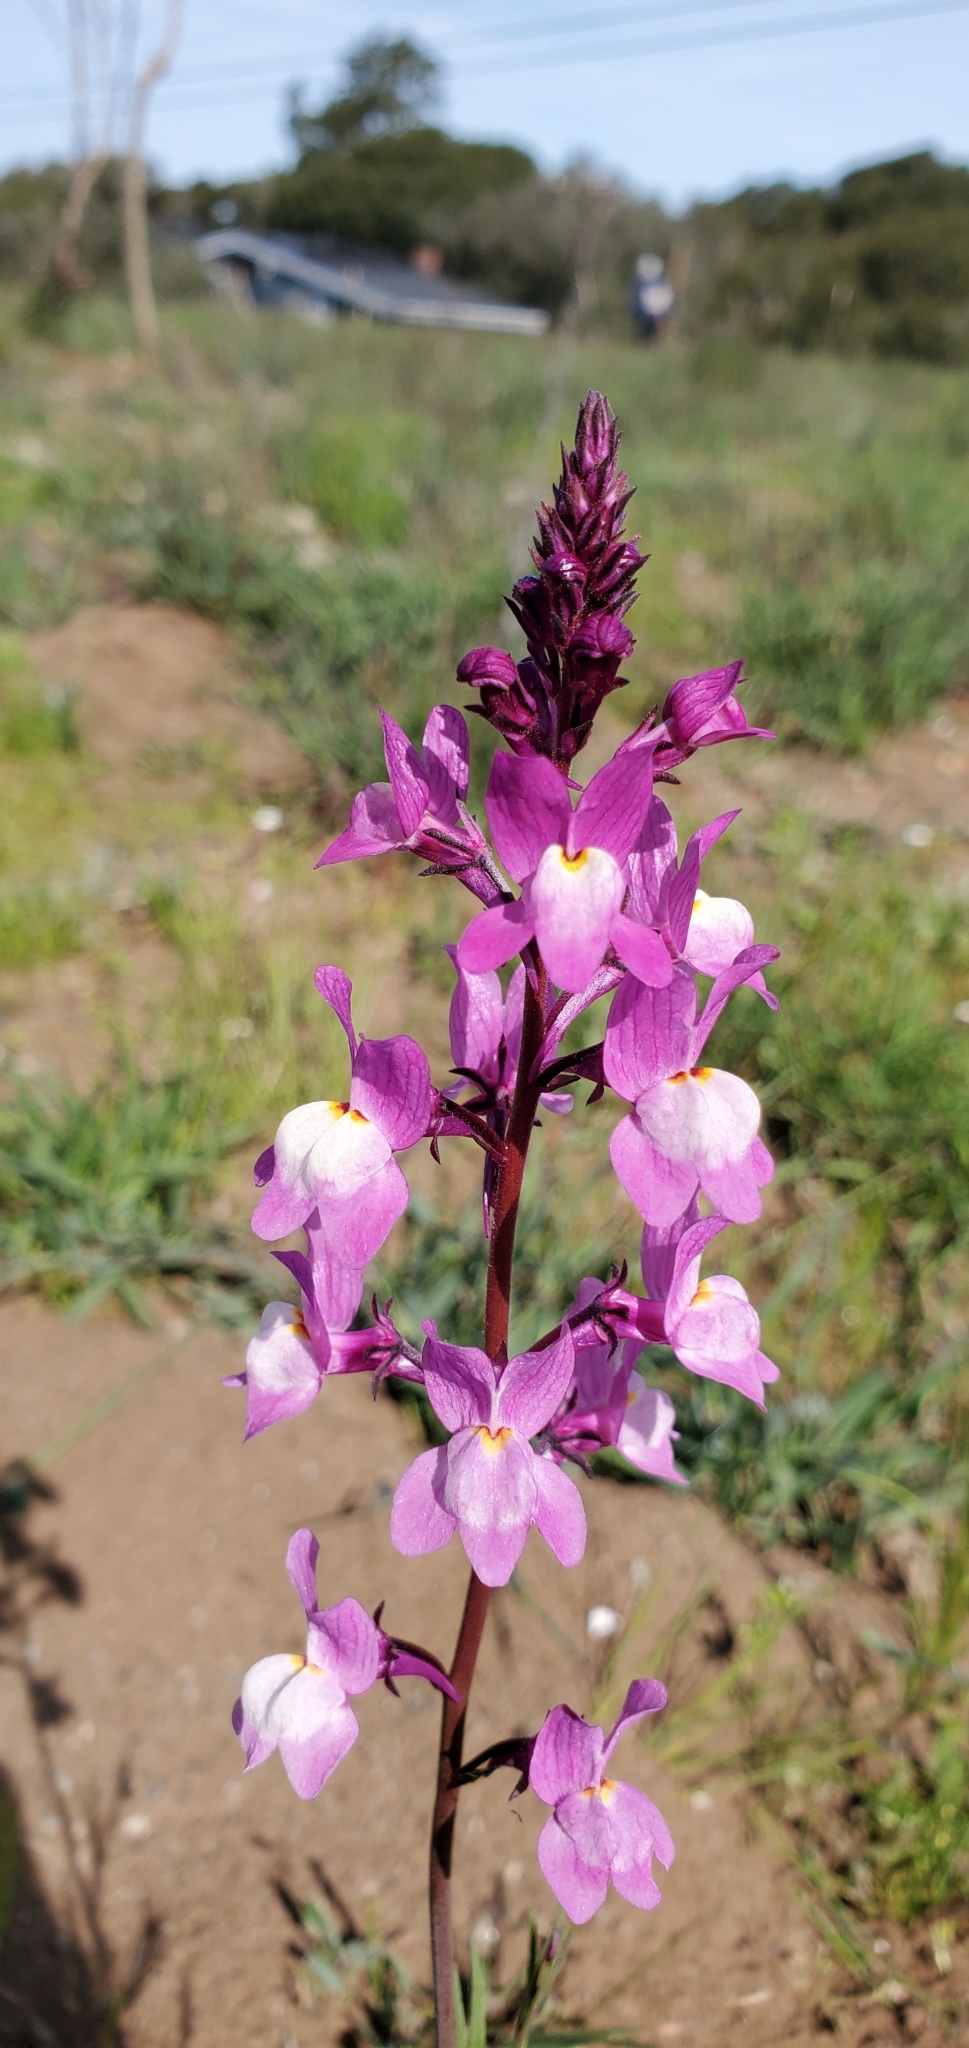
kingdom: Plantae
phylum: Tracheophyta
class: Magnoliopsida
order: Lamiales
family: Plantaginaceae
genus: Linaria
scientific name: Linaria maroccana
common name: Moroccan toadflax
